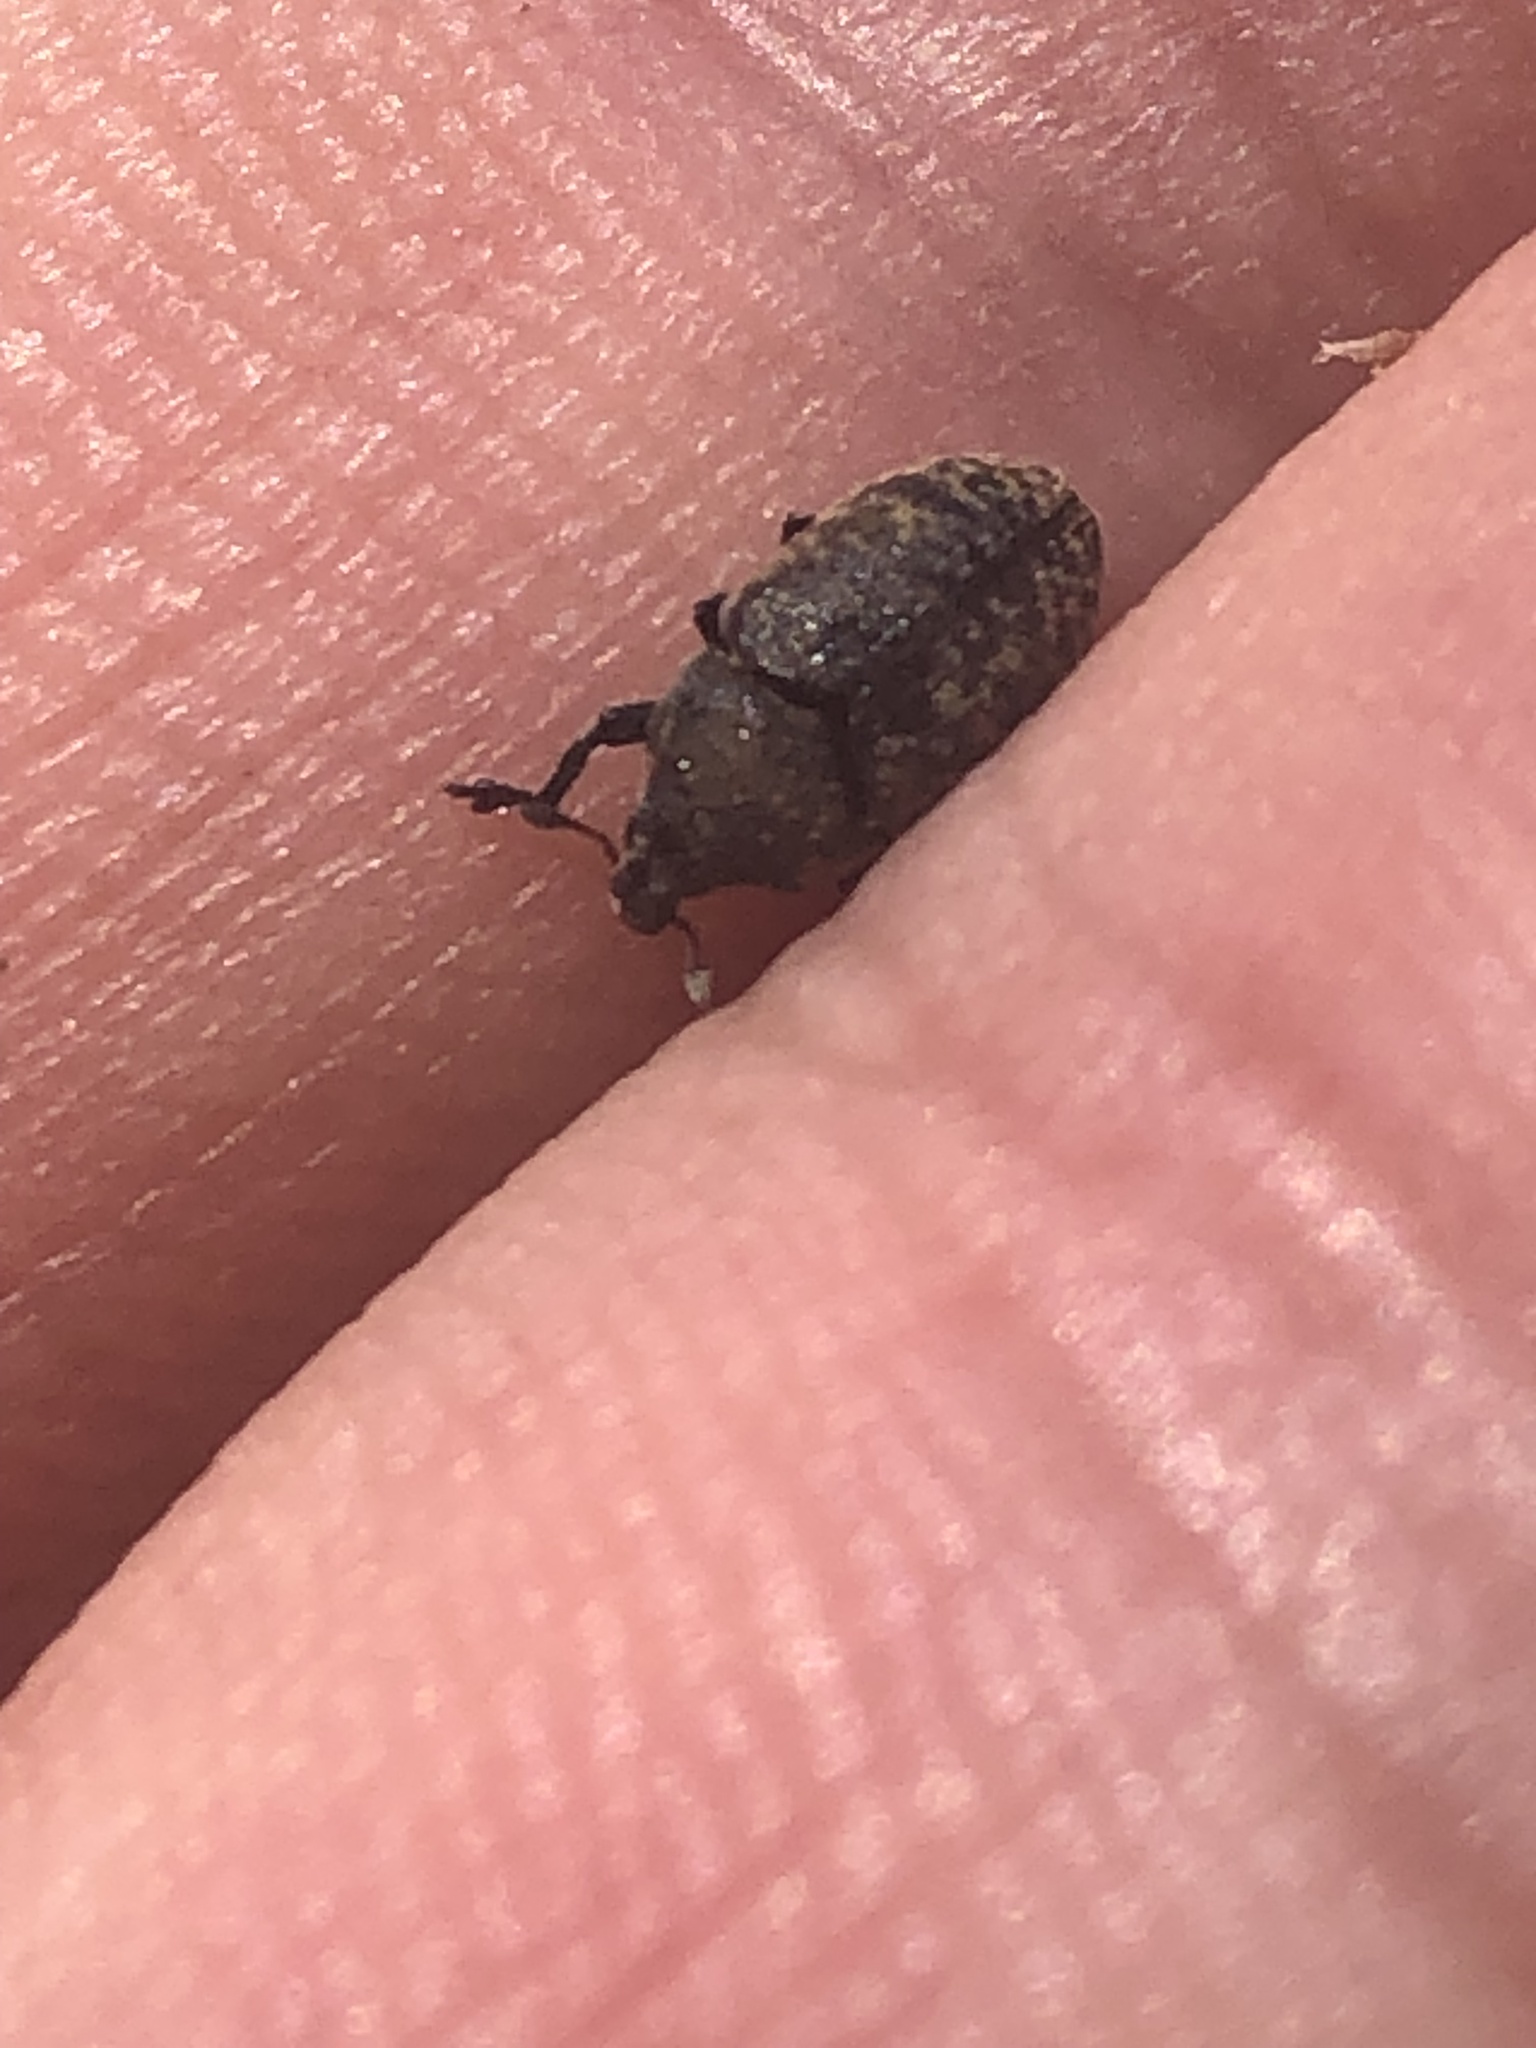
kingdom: Animalia
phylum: Arthropoda
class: Insecta
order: Coleoptera
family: Curculionidae
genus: Larinus
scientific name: Larinus obtusus
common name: Weevil
